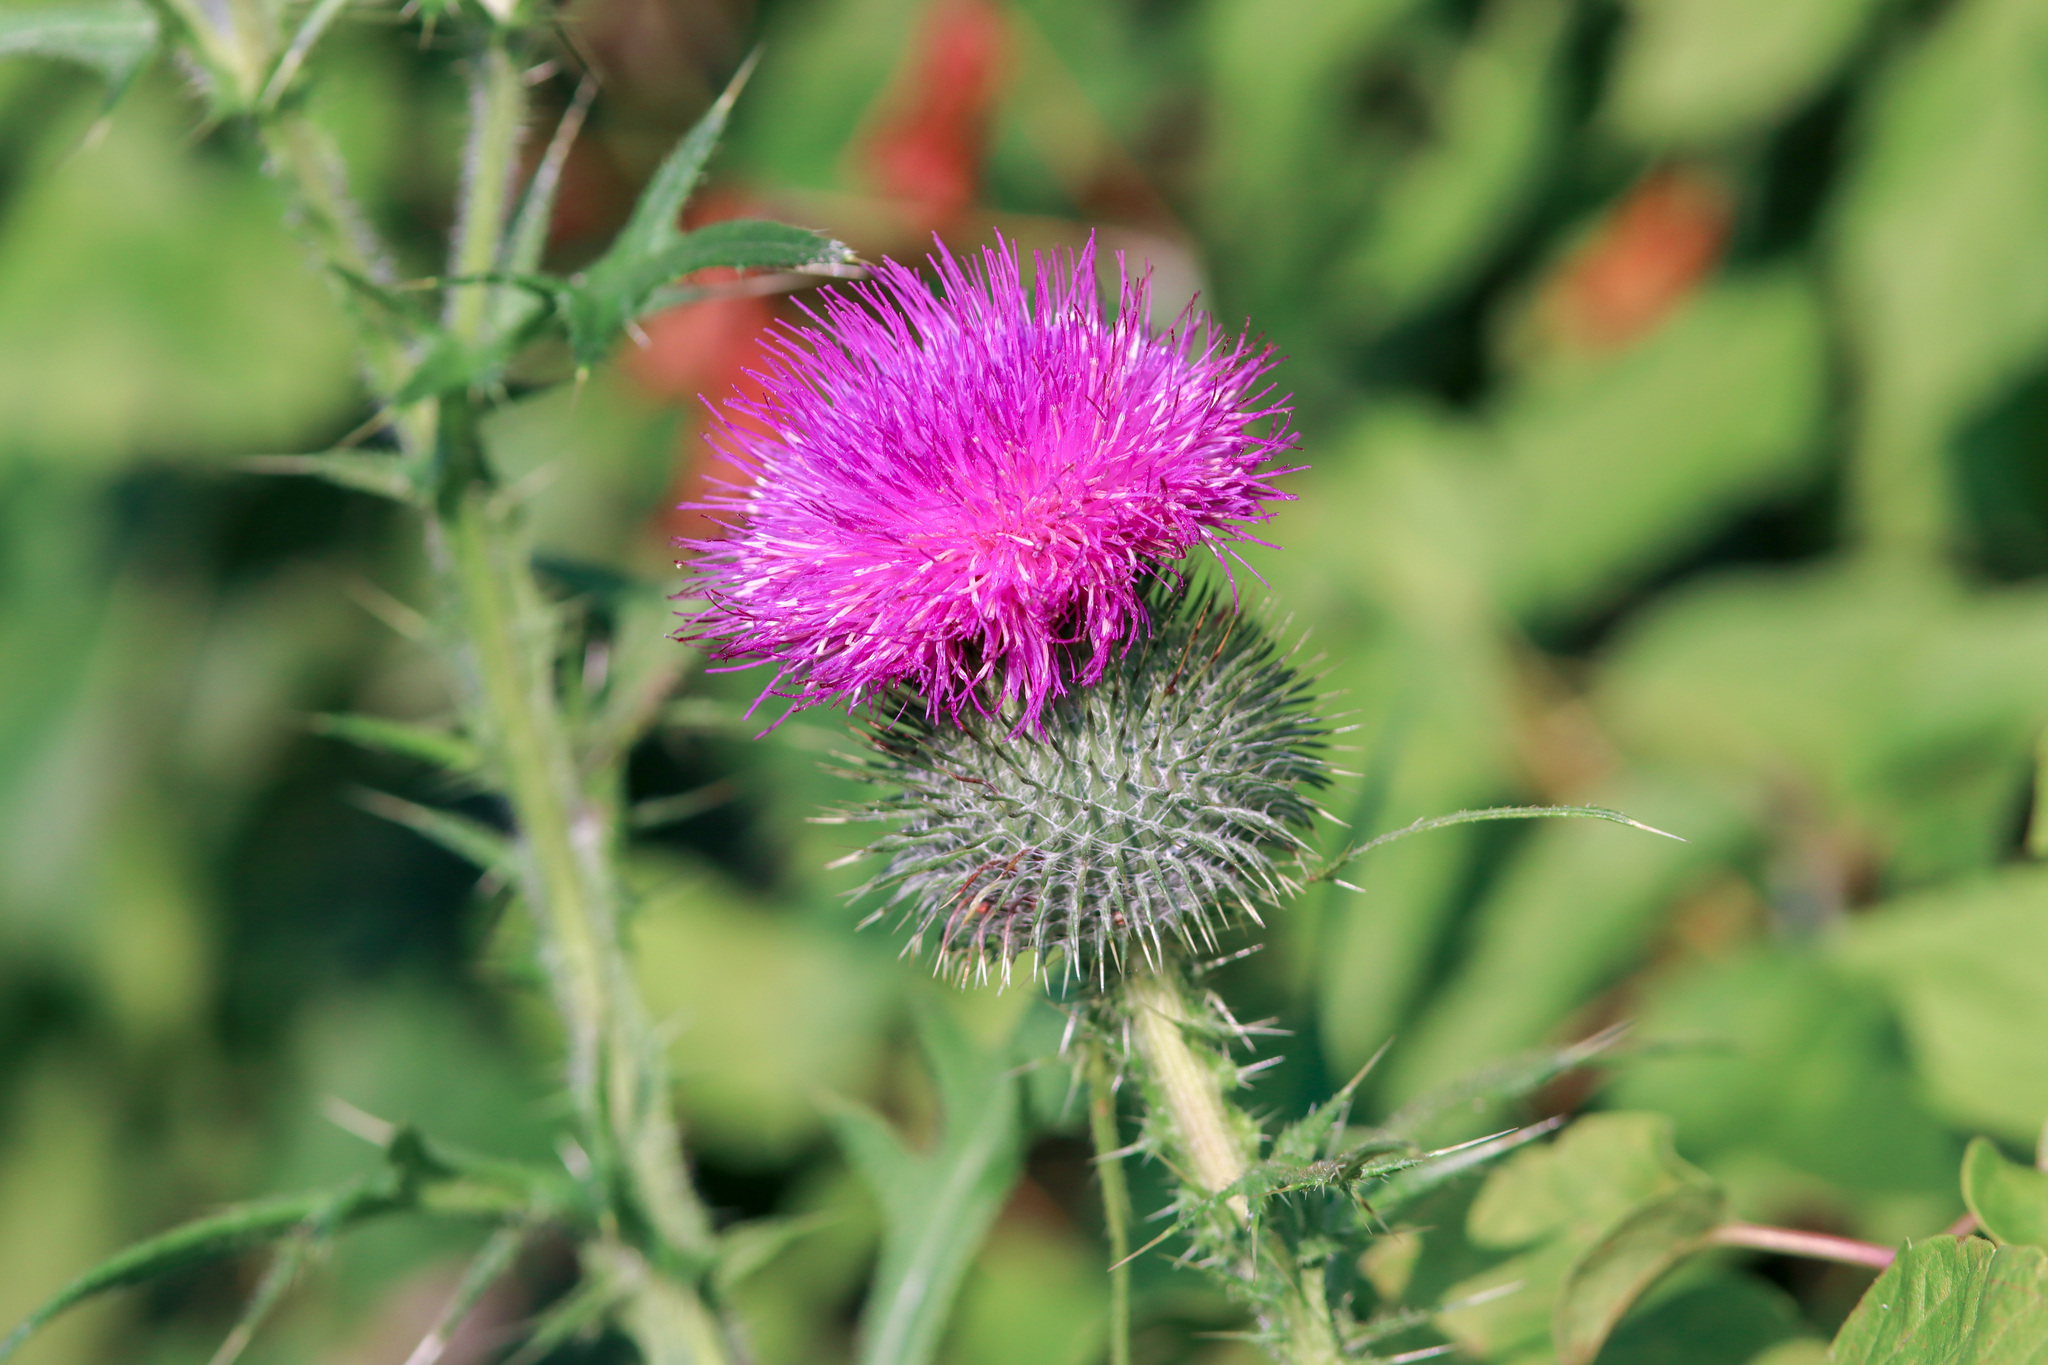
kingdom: Plantae
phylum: Tracheophyta
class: Magnoliopsida
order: Asterales
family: Asteraceae
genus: Cirsium
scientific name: Cirsium vulgare
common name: Bull thistle
